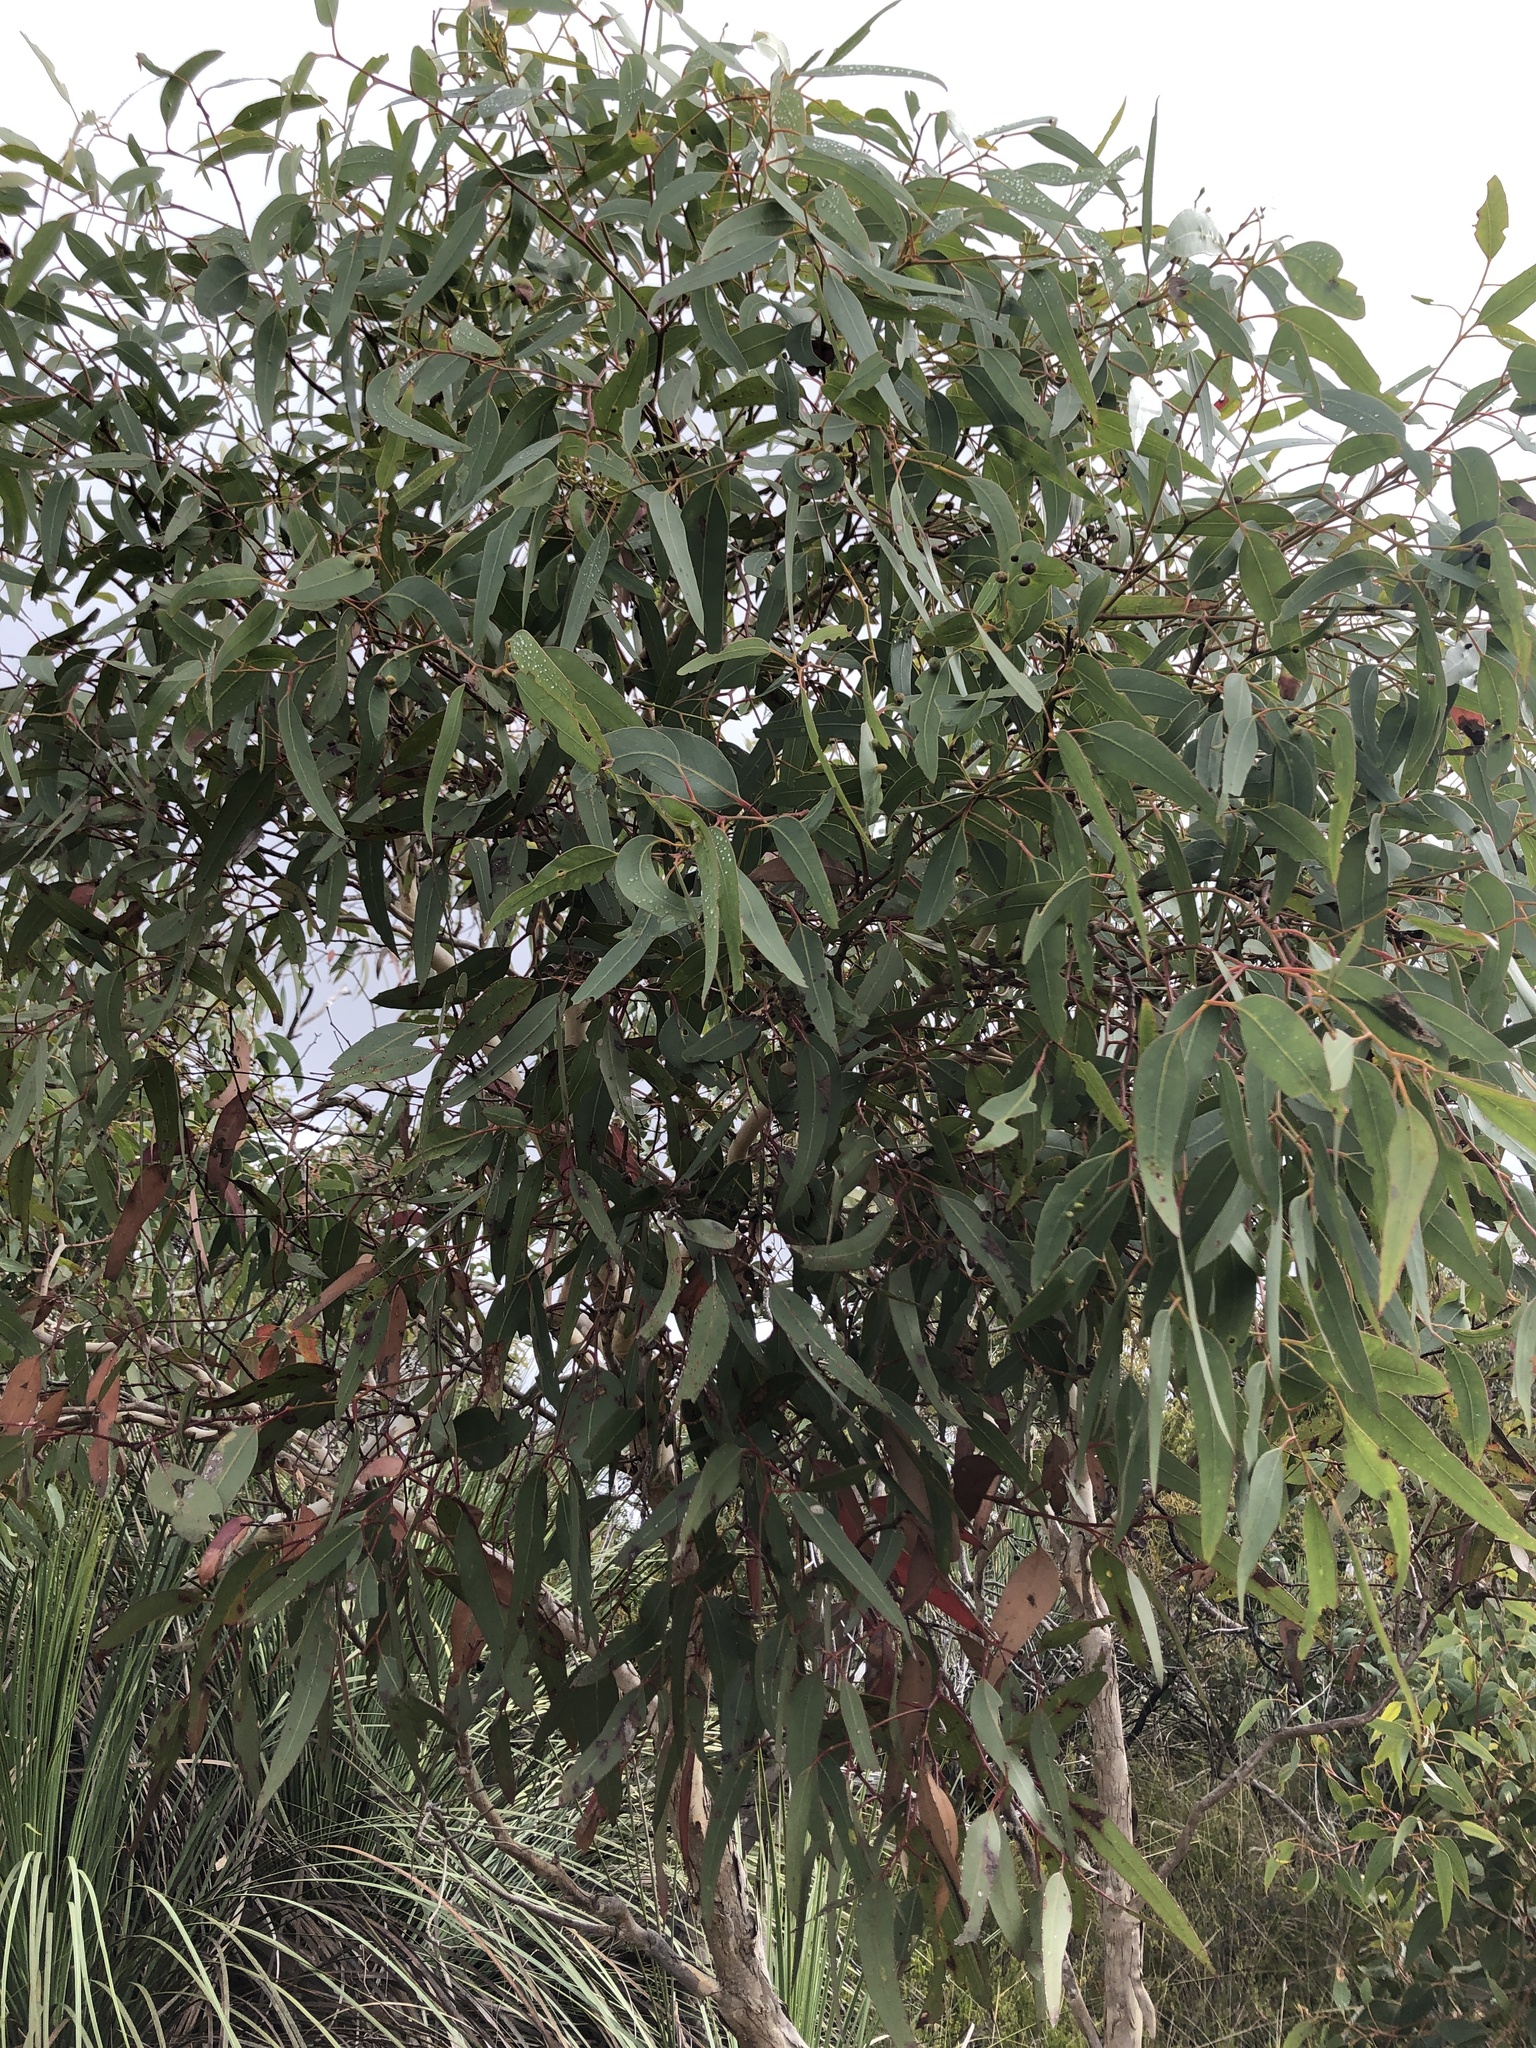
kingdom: Plantae
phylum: Tracheophyta
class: Magnoliopsida
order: Myrtales
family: Myrtaceae
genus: Eucalyptus
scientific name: Eucalyptus fasciculosa
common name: Hill gum
